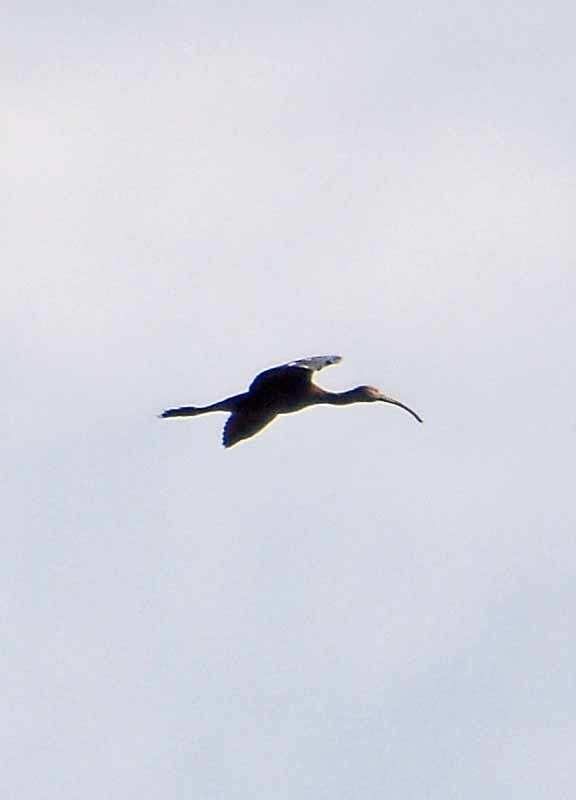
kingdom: Animalia
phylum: Chordata
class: Aves
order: Pelecaniformes
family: Threskiornithidae
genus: Plegadis
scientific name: Plegadis chihi
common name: White-faced ibis
